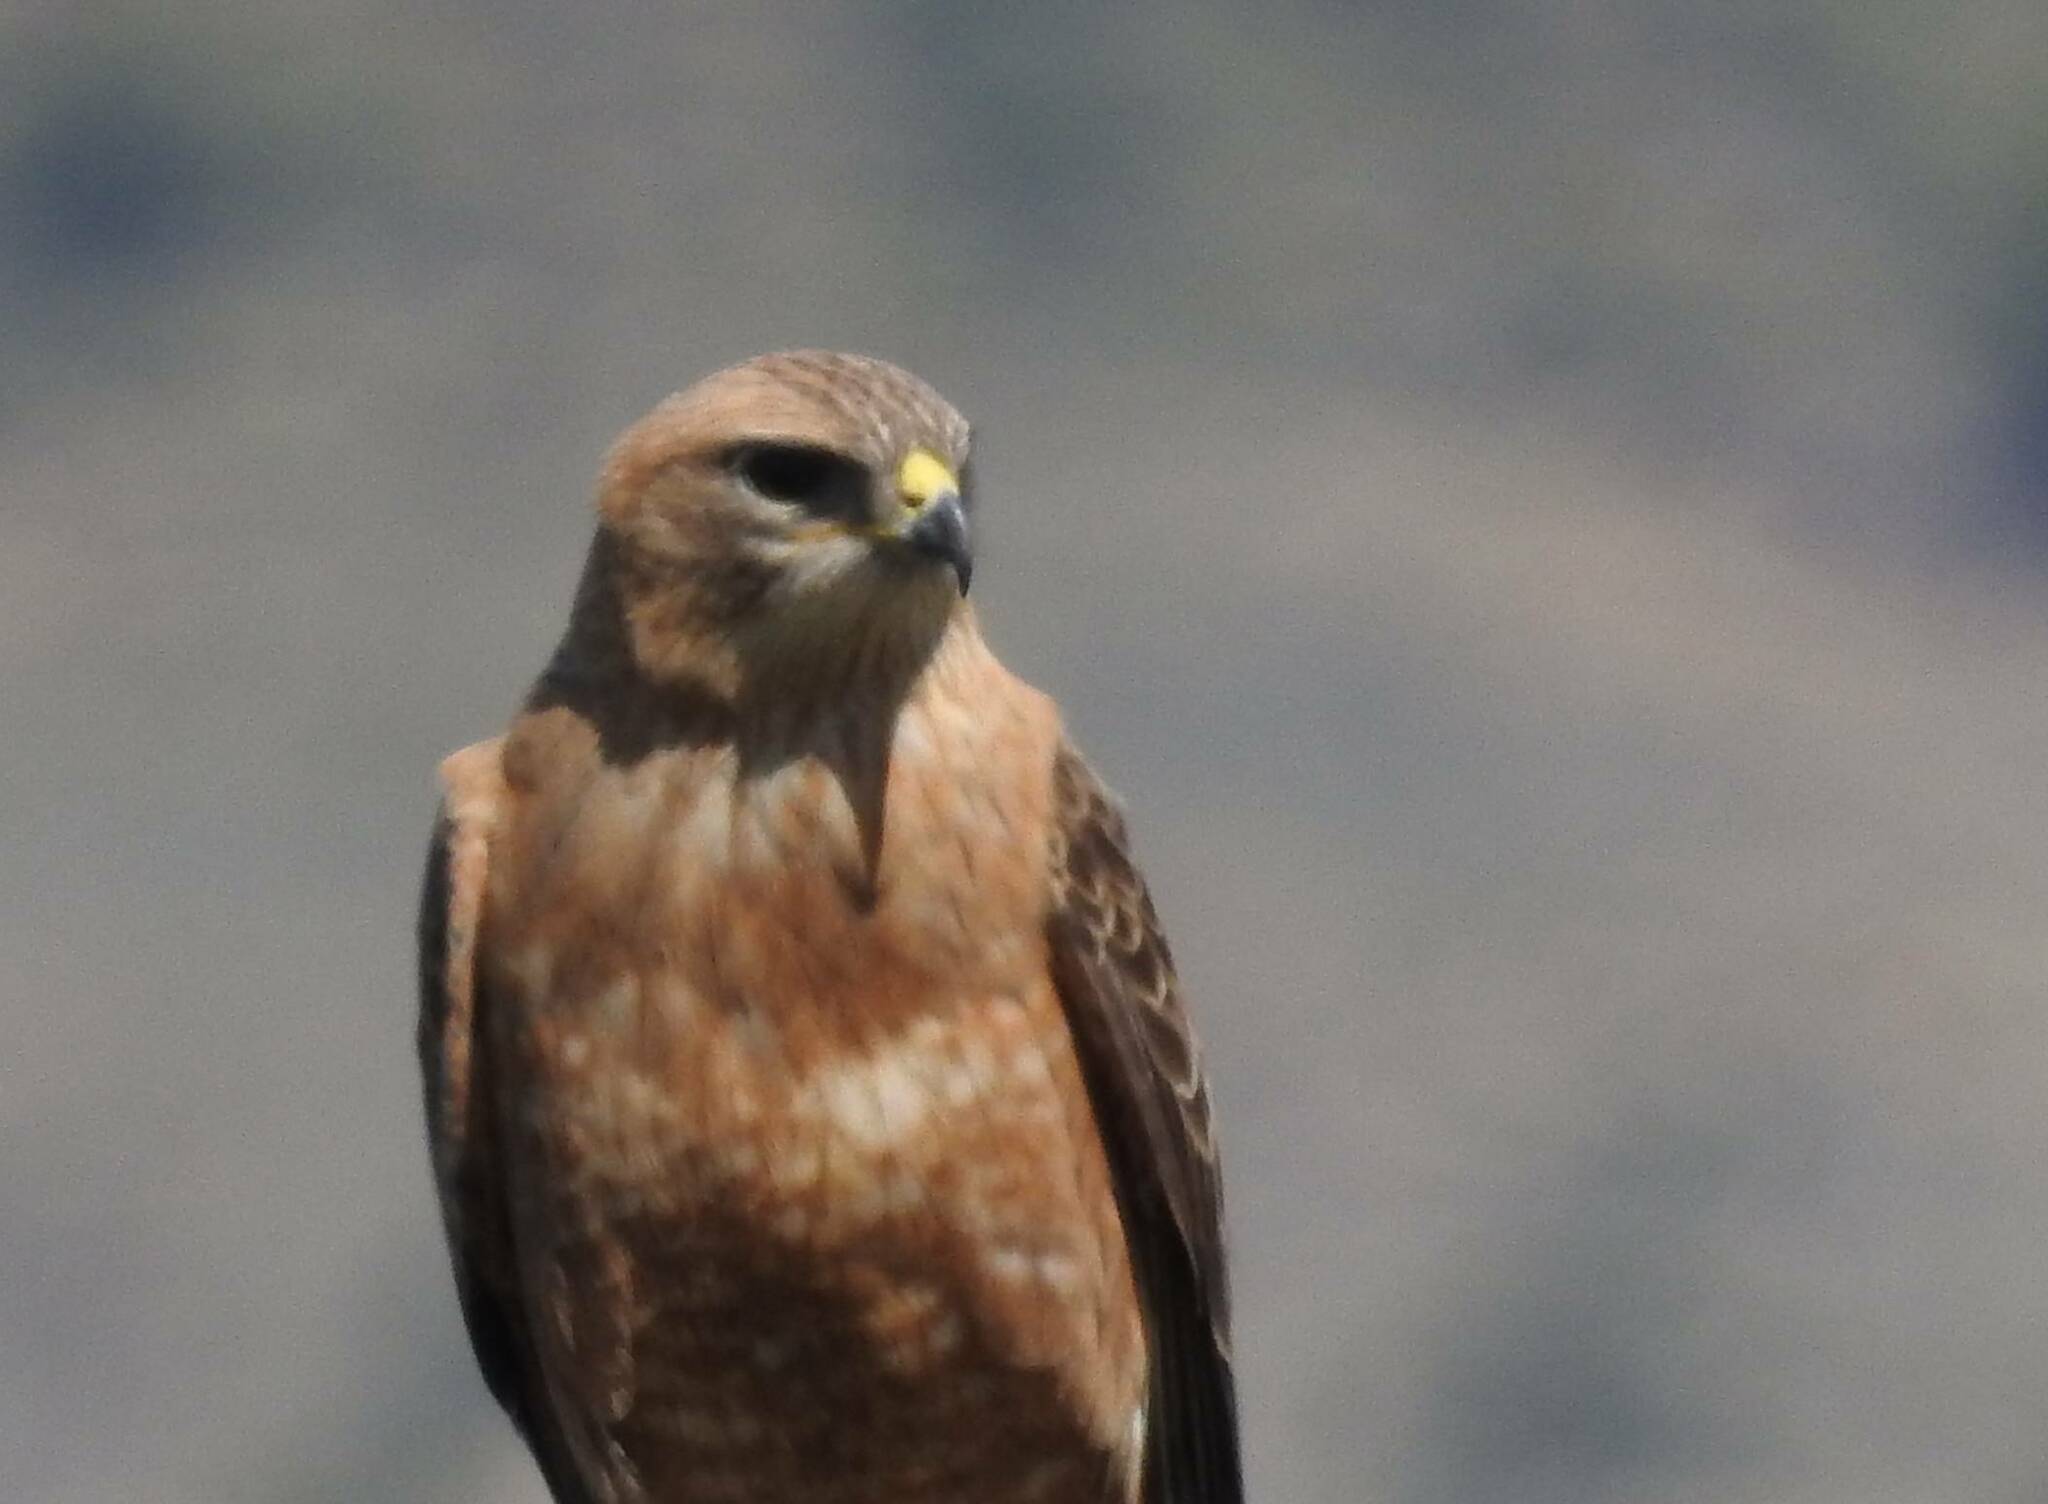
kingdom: Animalia
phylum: Chordata
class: Aves
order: Accipitriformes
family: Accipitridae
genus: Buteo
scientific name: Buteo rufinus
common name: Long-legged buzzard
